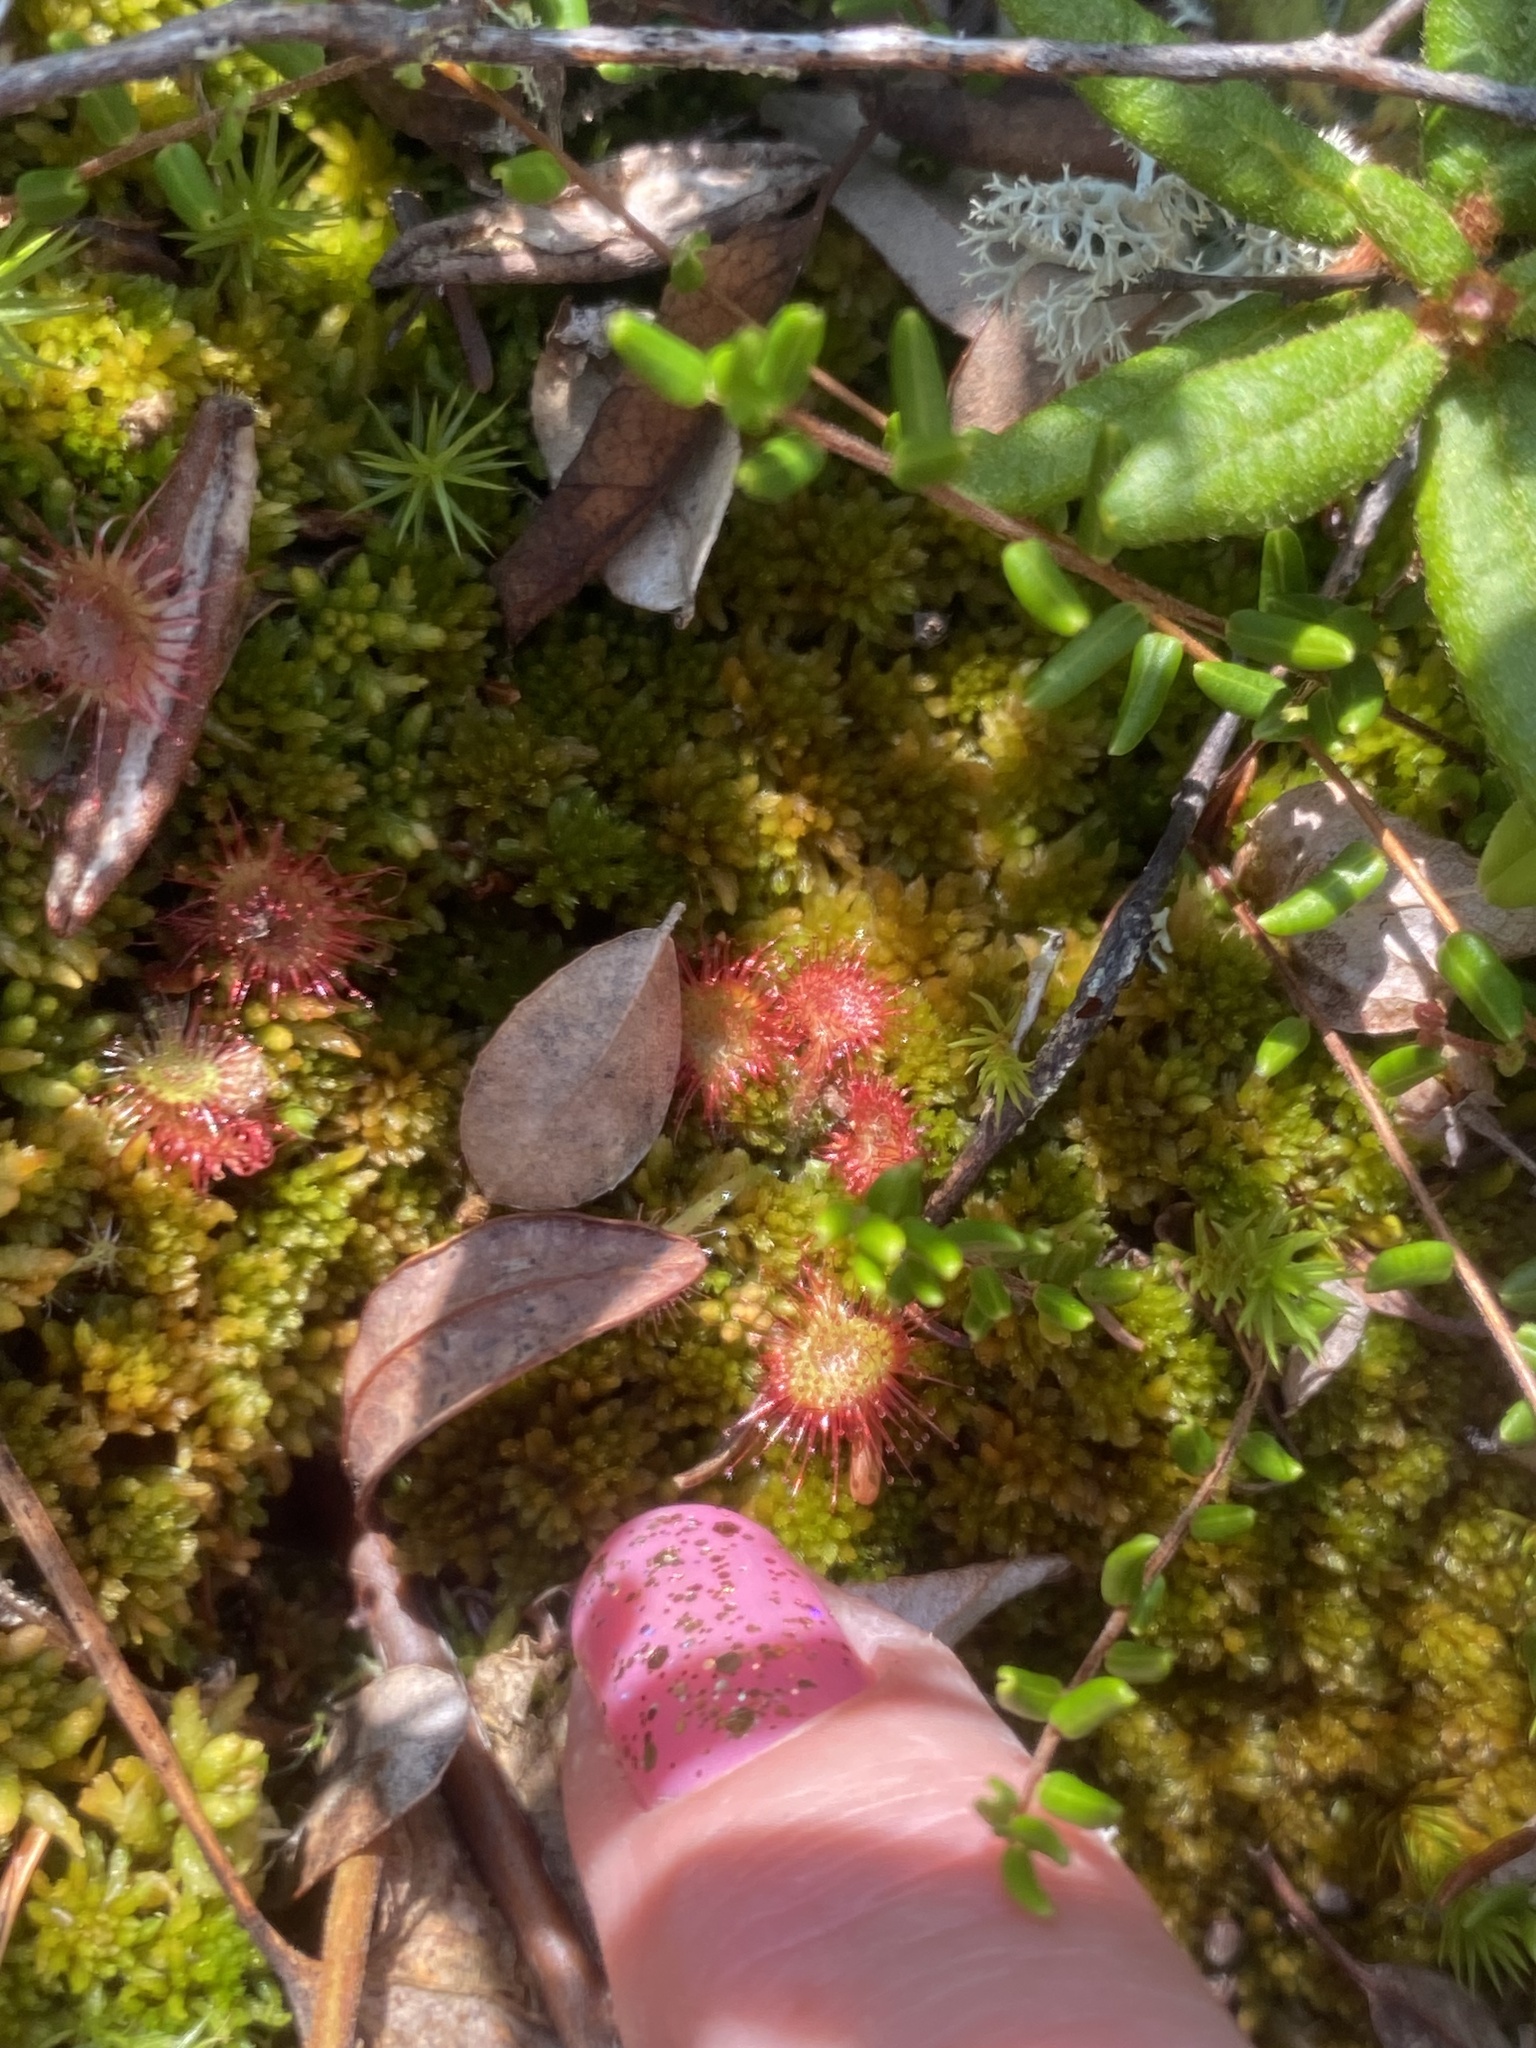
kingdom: Plantae
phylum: Tracheophyta
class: Magnoliopsida
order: Caryophyllales
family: Droseraceae
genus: Drosera
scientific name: Drosera rotundifolia
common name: Round-leaved sundew
